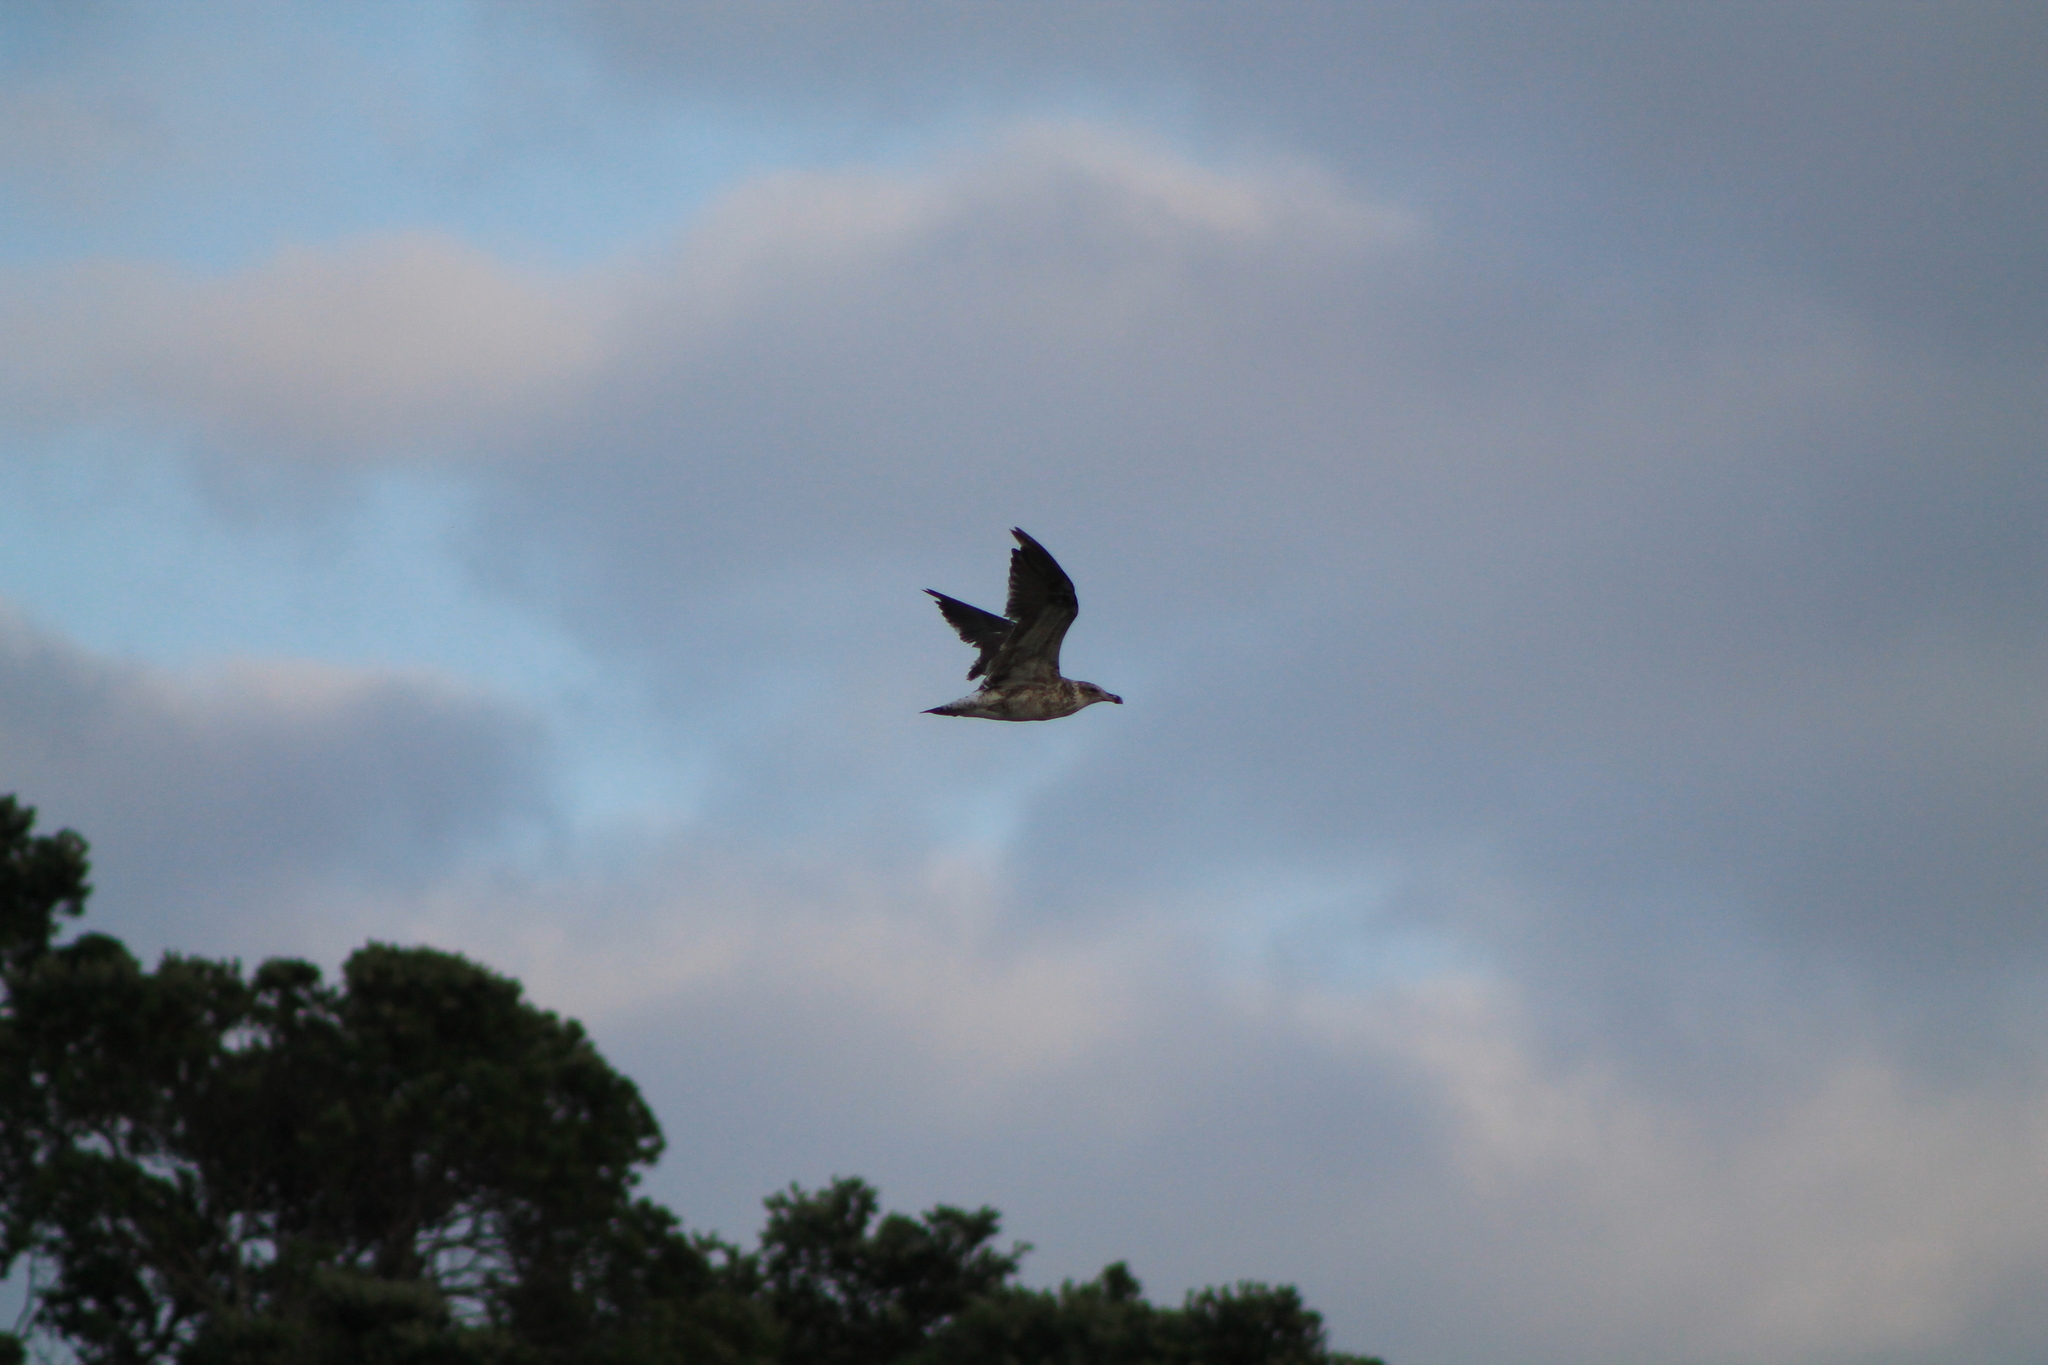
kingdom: Animalia
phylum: Chordata
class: Aves
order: Charadriiformes
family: Laridae
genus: Larus
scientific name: Larus dominicanus
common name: Kelp gull
